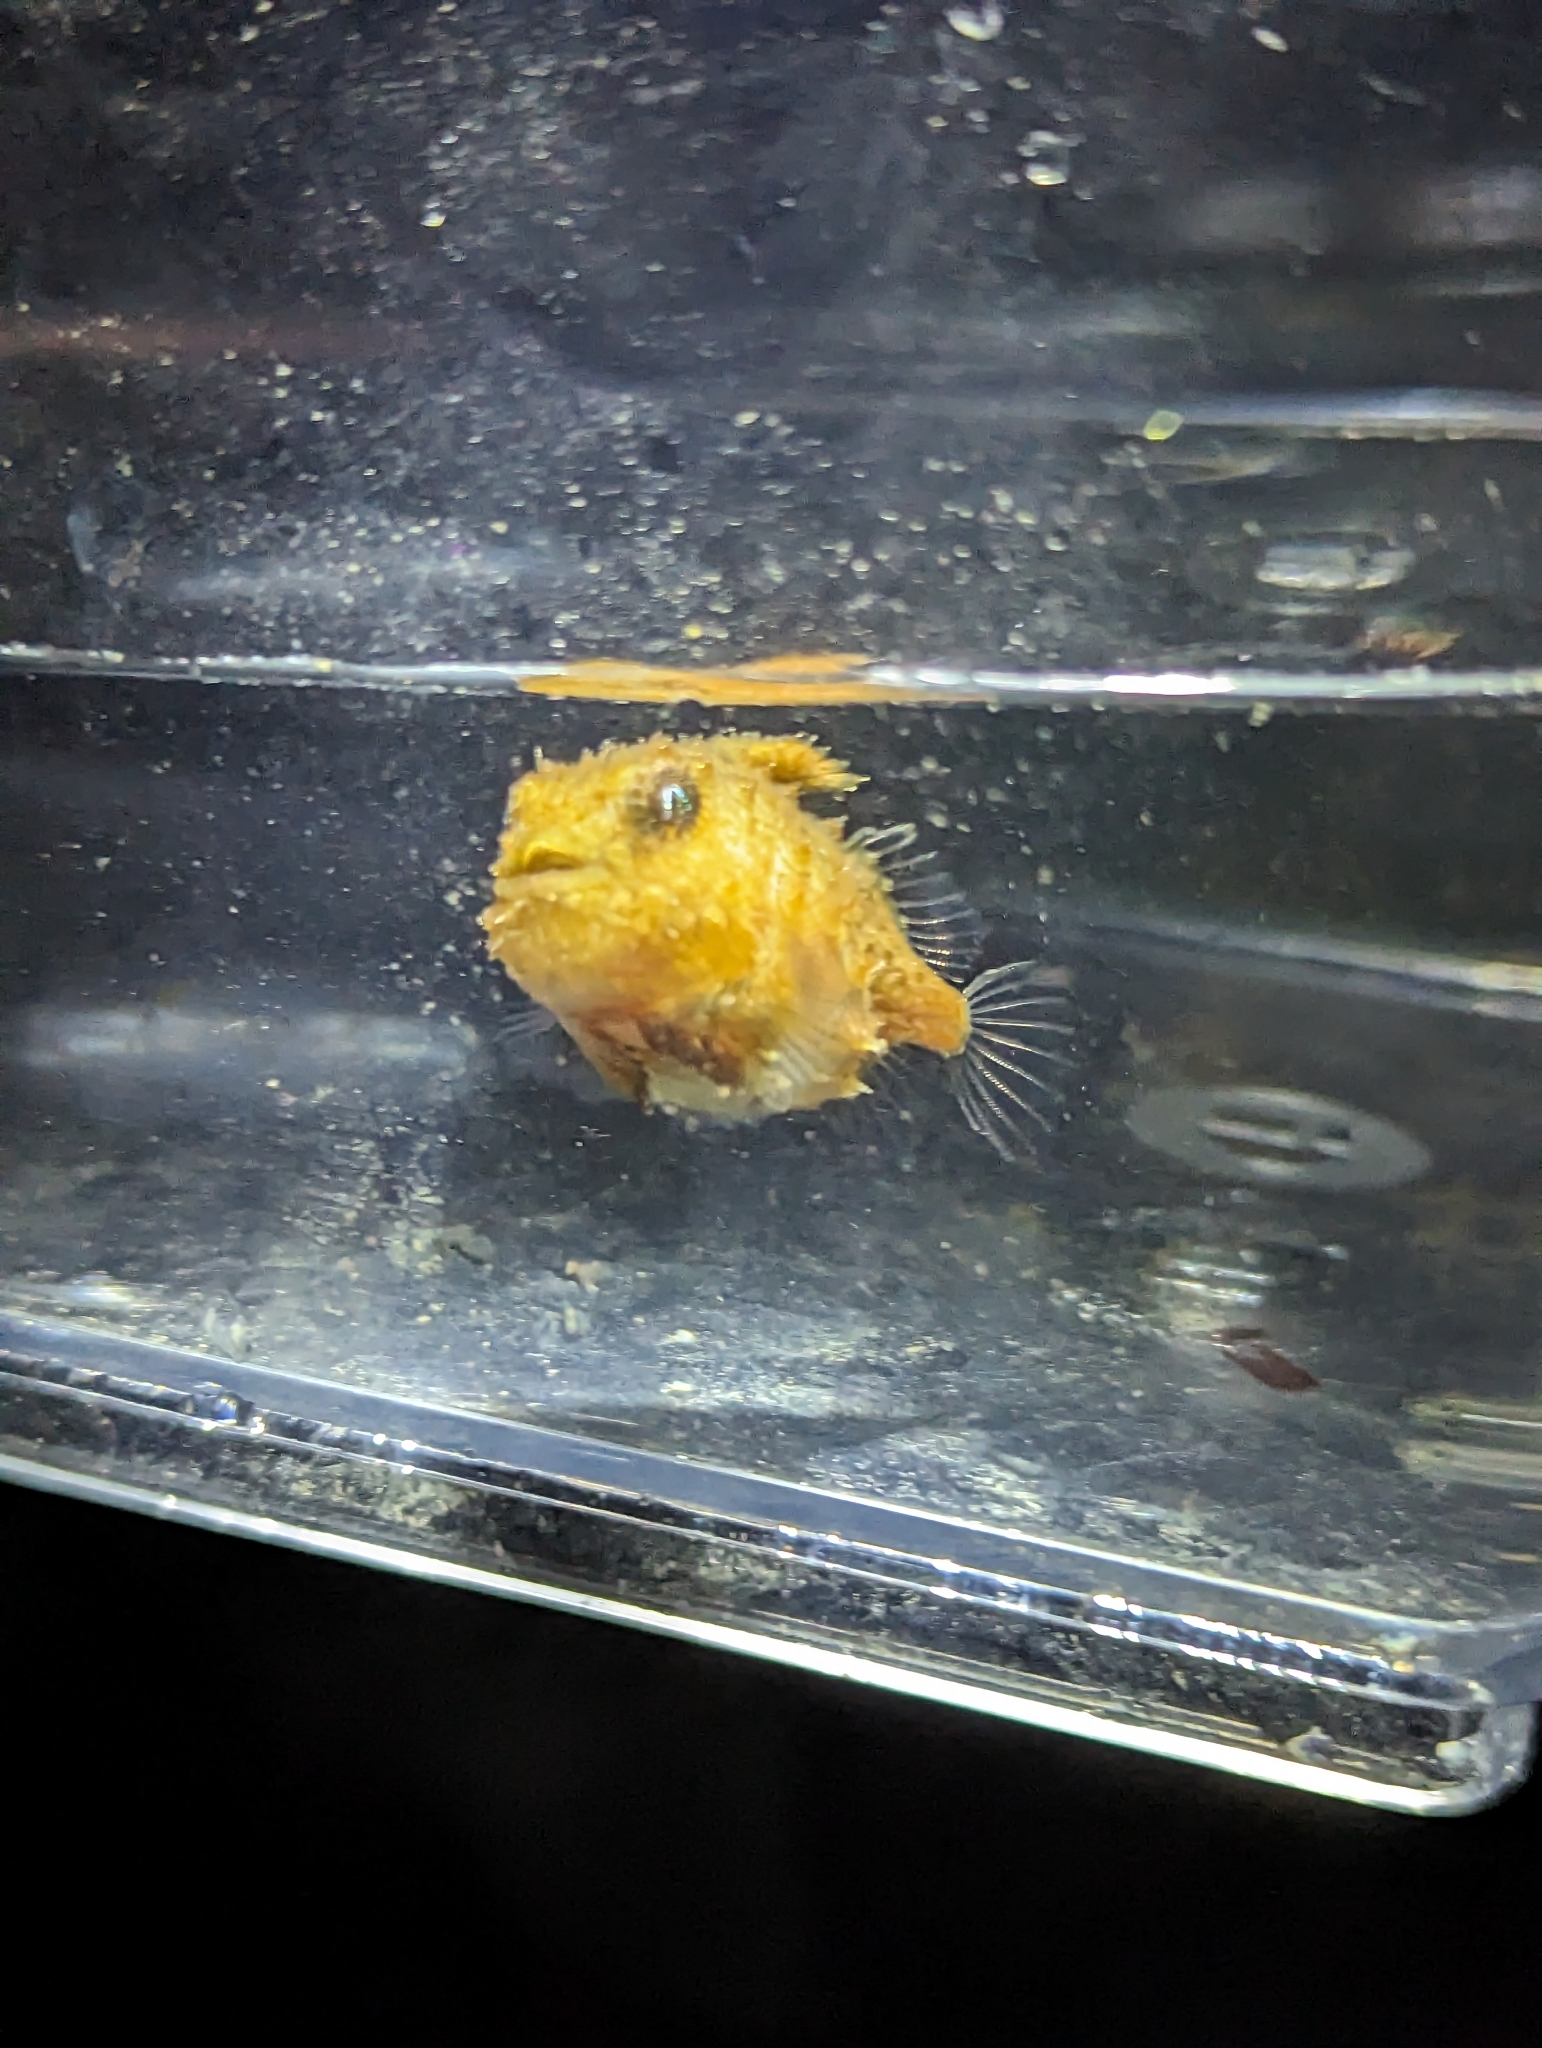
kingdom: Animalia
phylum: Chordata
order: Scorpaeniformes
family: Cyclopteridae
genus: Eumicrotremus
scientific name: Eumicrotremus orbis
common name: Pacific spiny lumpsucker
